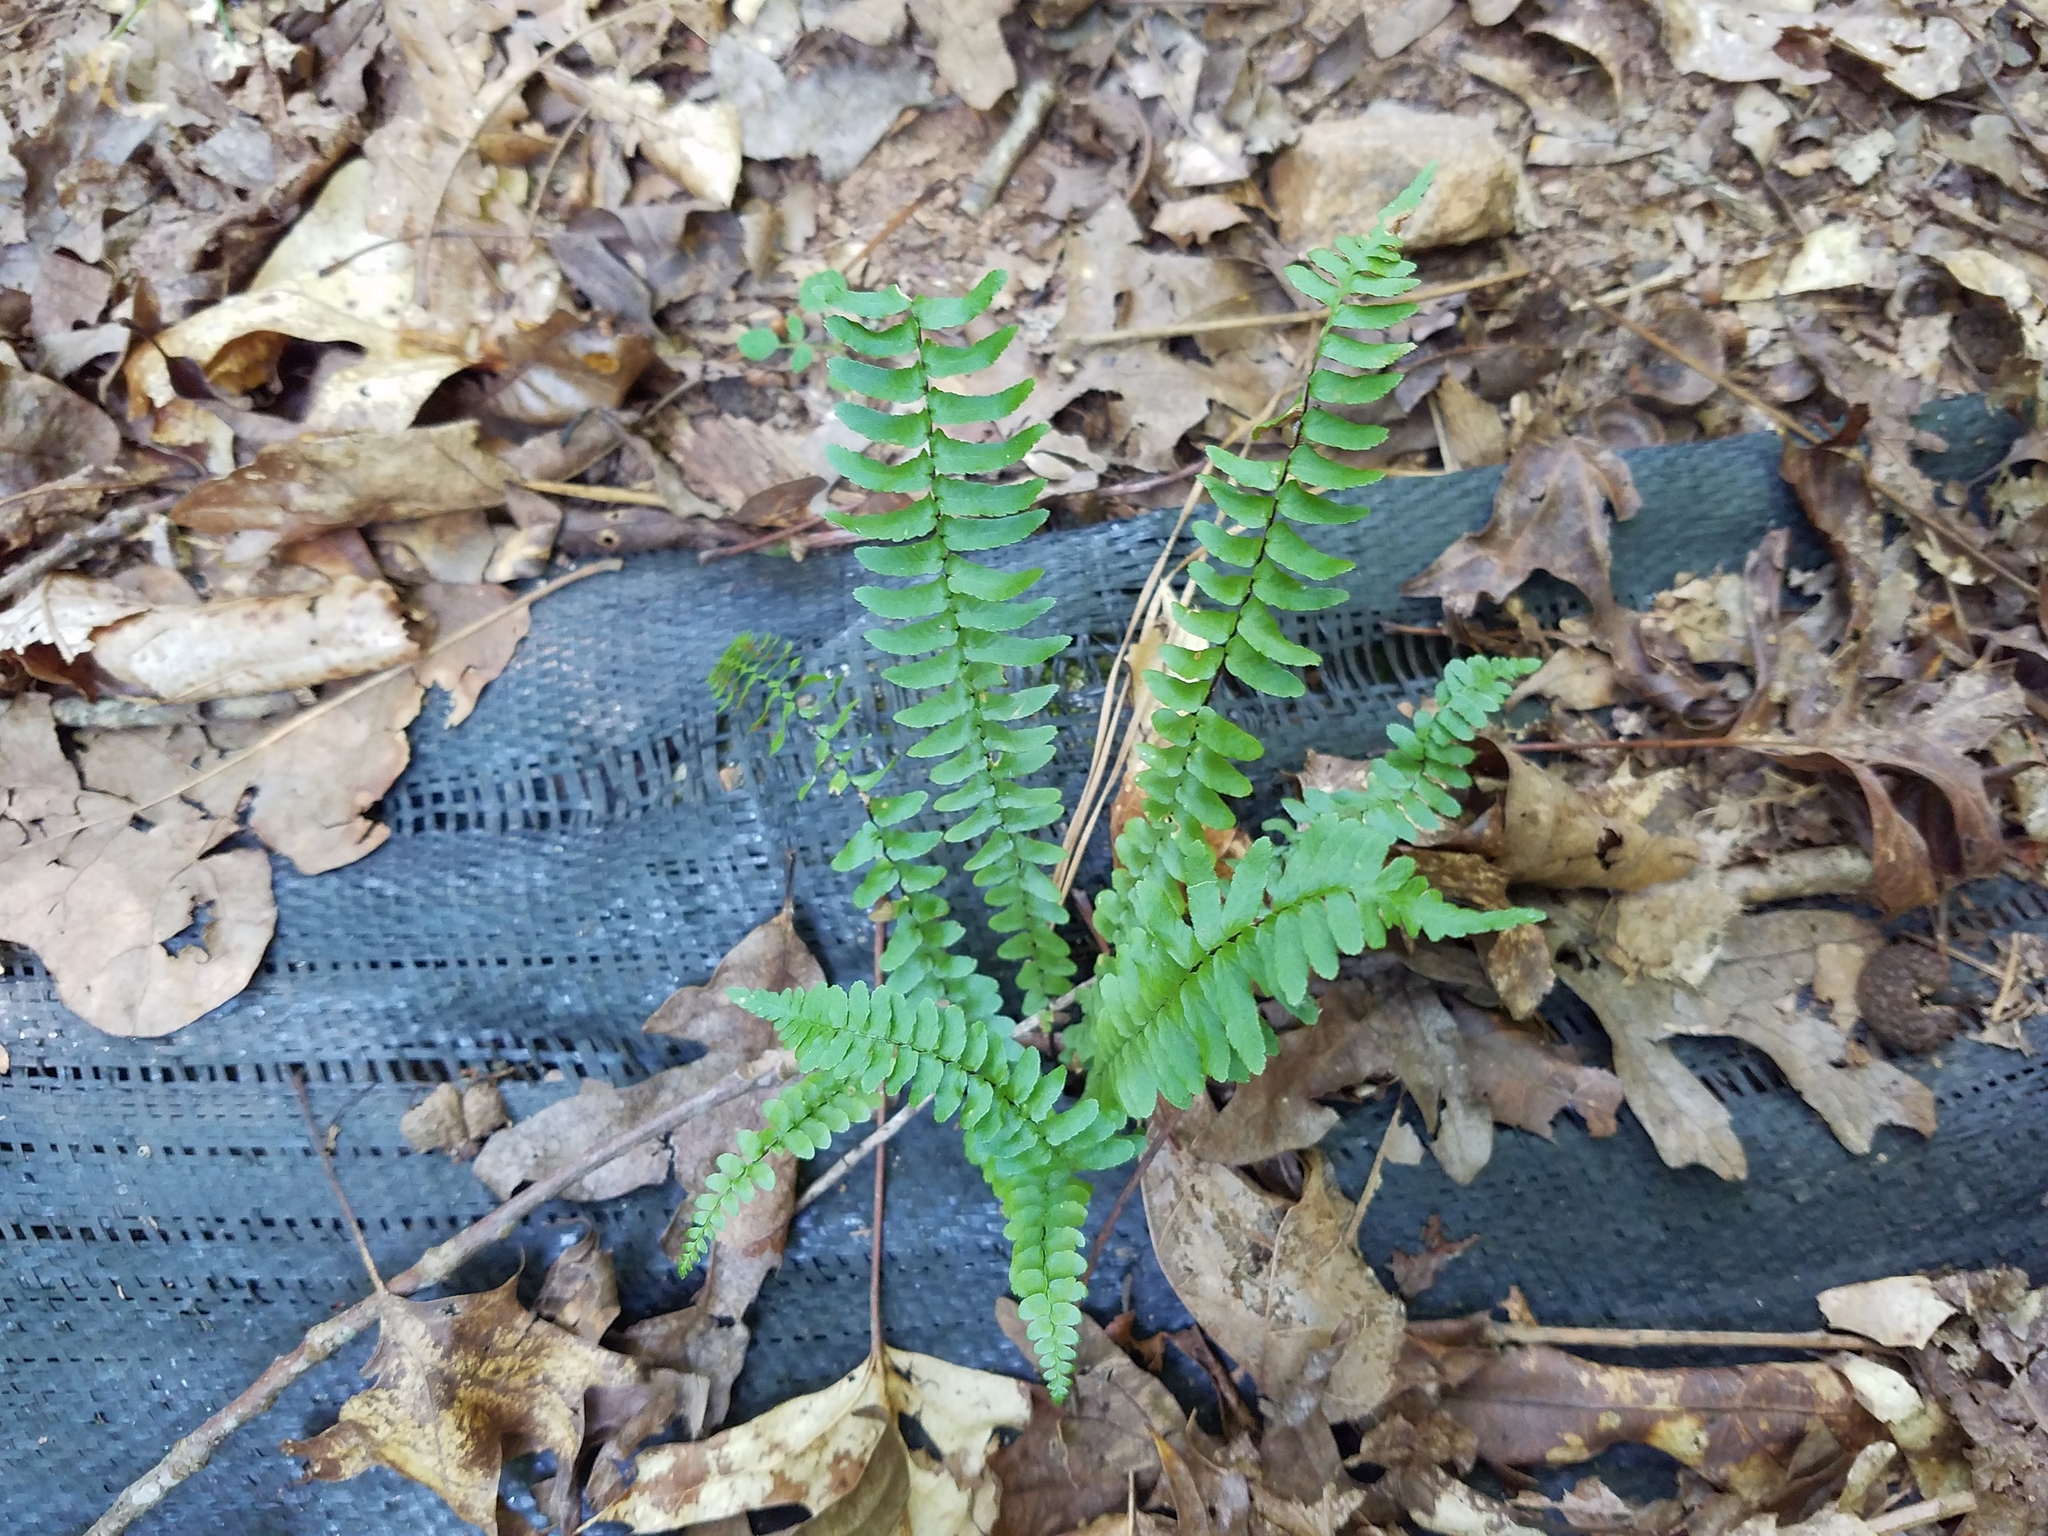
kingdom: Plantae
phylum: Tracheophyta
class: Polypodiopsida
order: Polypodiales
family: Aspleniaceae
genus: Asplenium
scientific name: Asplenium platyneuron
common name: Ebony spleenwort
